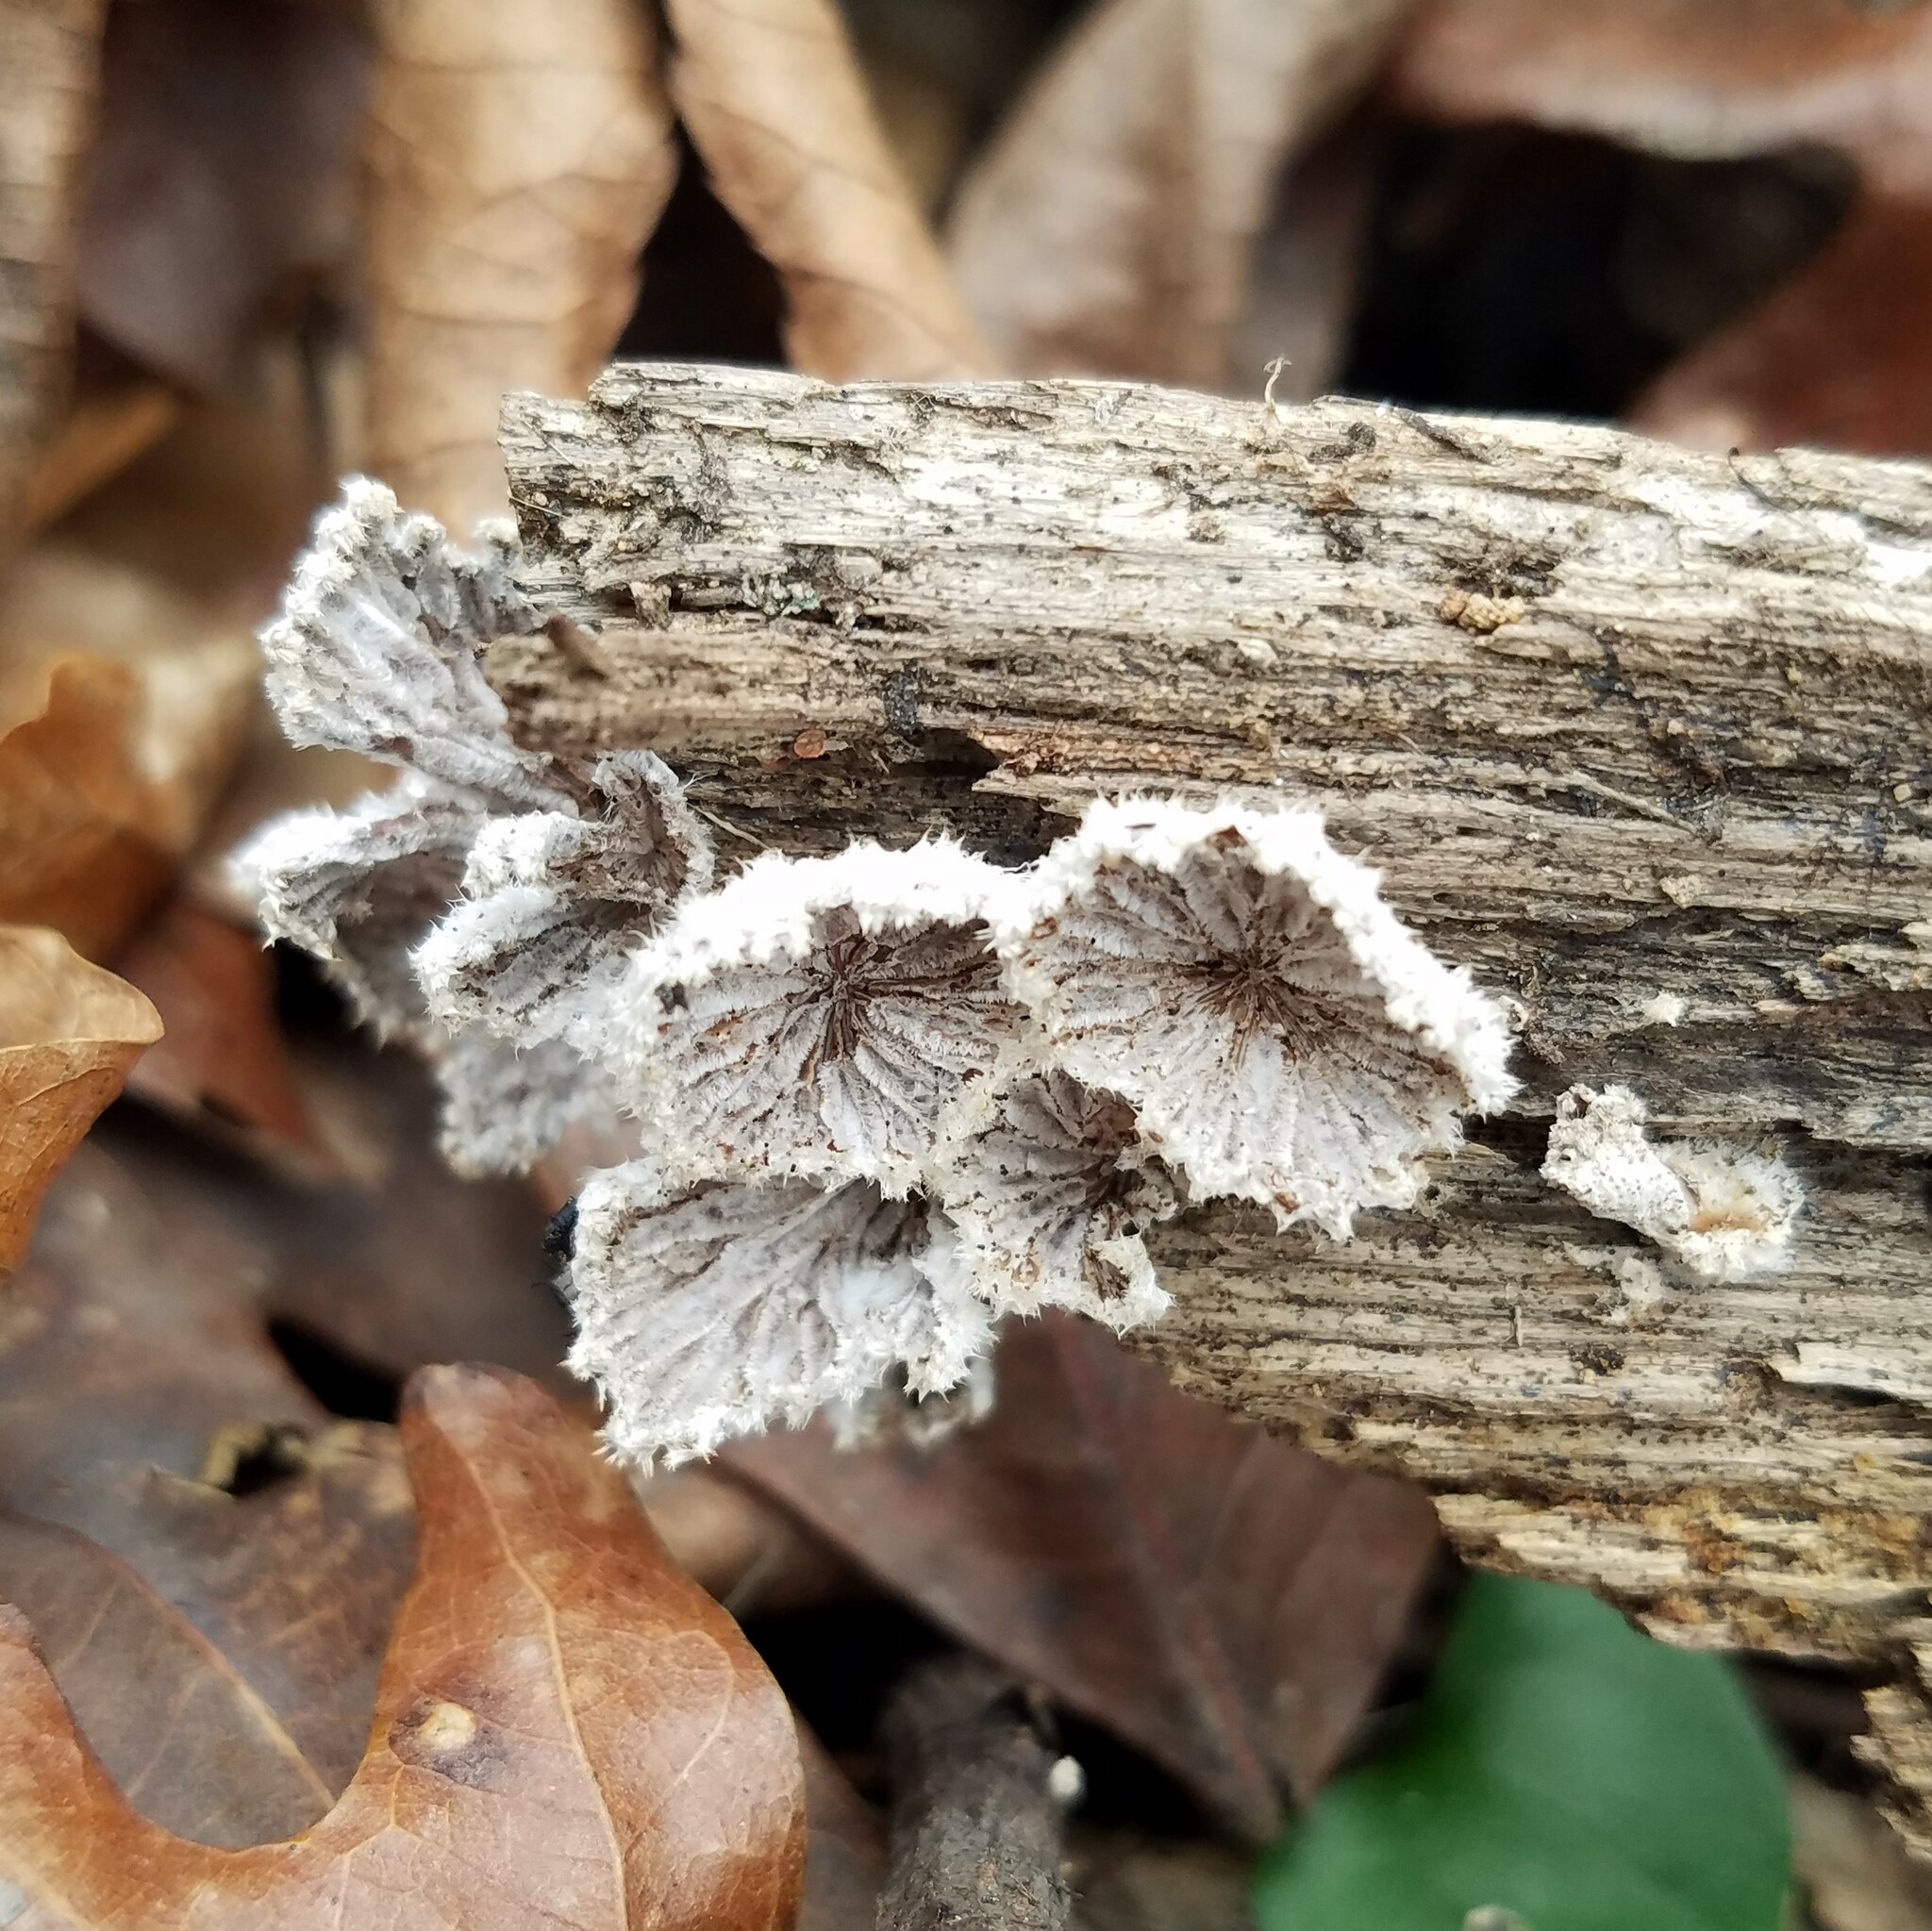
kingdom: Fungi
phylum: Basidiomycota
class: Agaricomycetes
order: Agaricales
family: Schizophyllaceae
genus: Schizophyllum
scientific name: Schizophyllum commune
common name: Common porecrust
